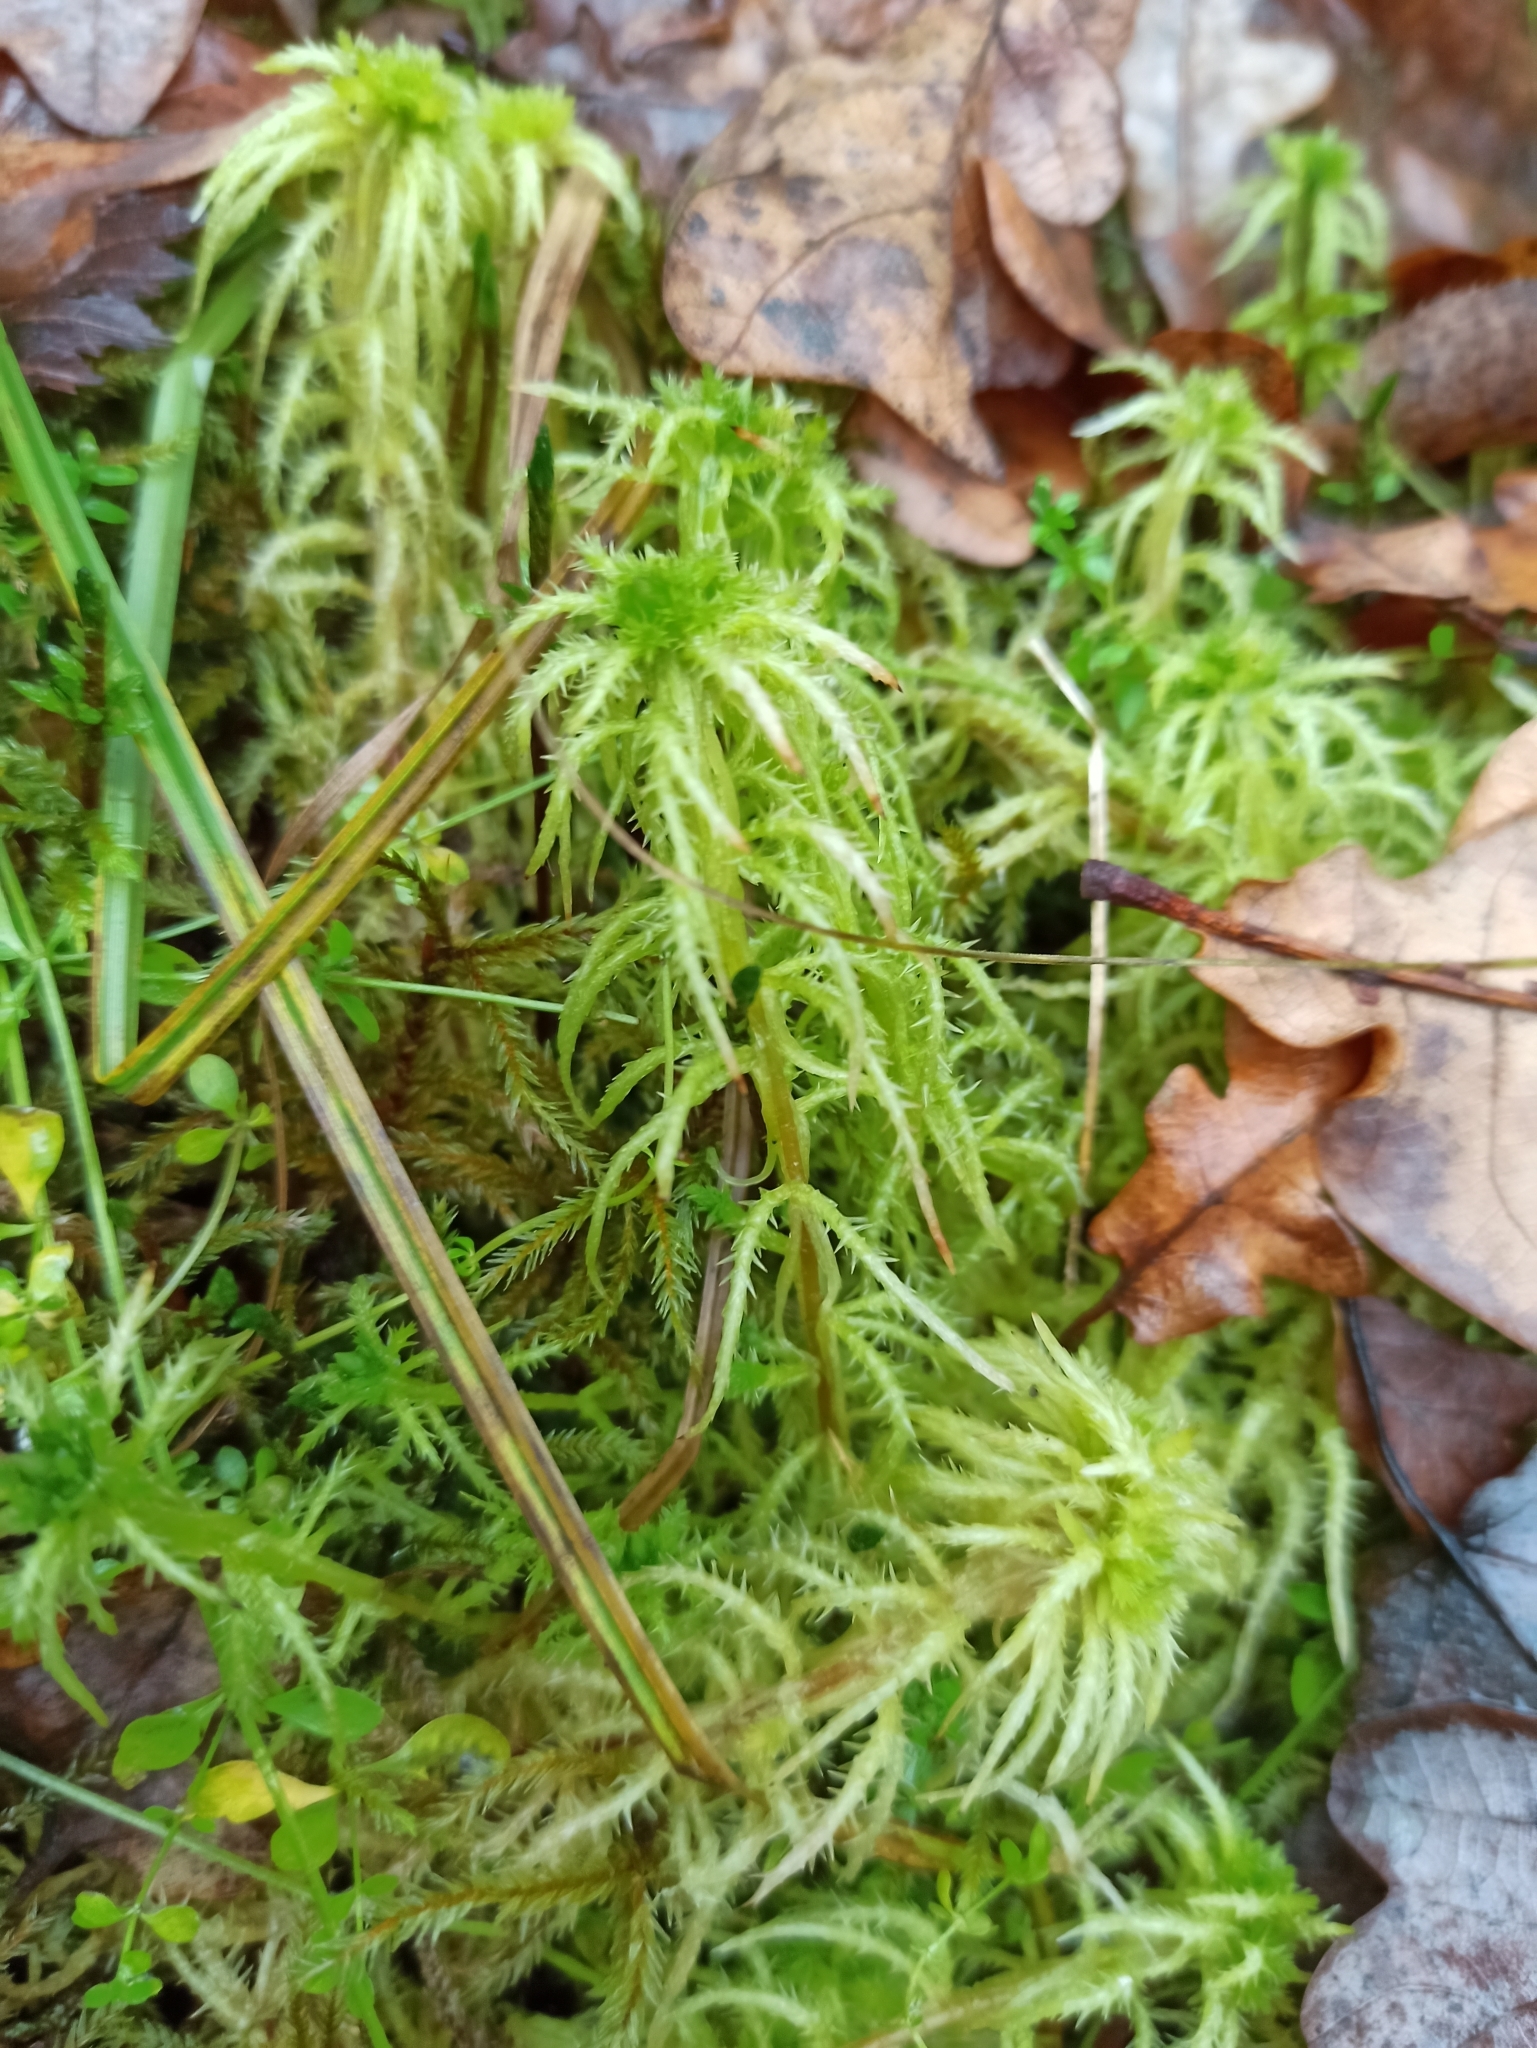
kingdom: Plantae
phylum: Bryophyta
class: Sphagnopsida
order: Sphagnales
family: Sphagnaceae
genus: Sphagnum
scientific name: Sphagnum squarrosum
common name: Shaggy peat moss
